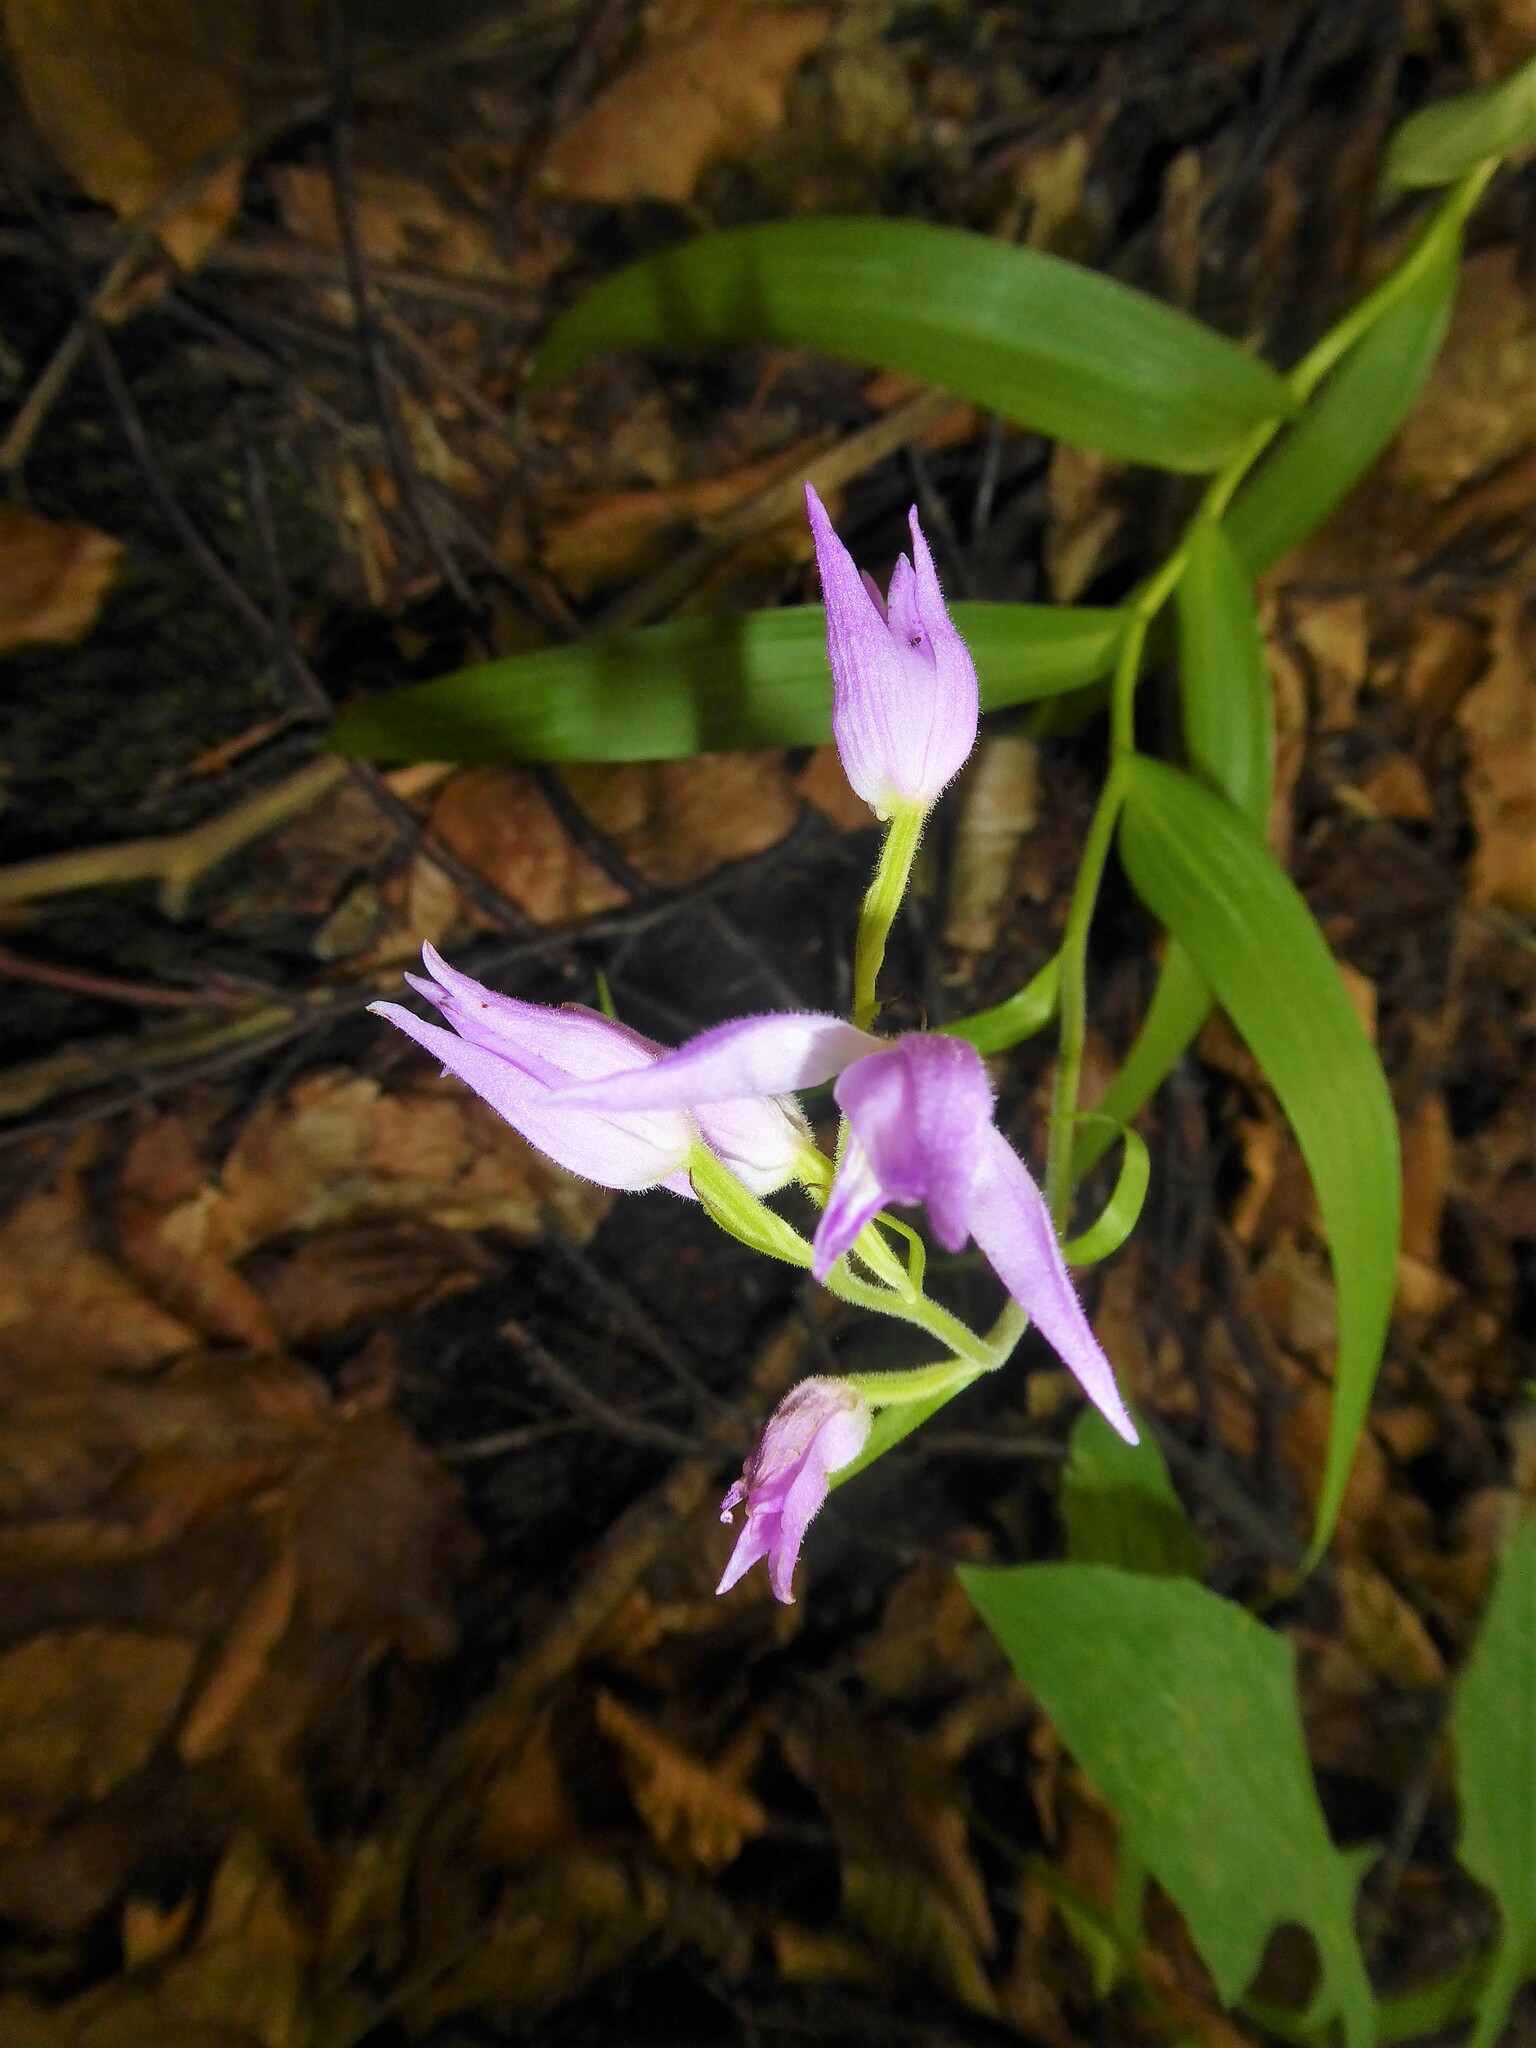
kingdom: Plantae
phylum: Tracheophyta
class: Liliopsida
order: Asparagales
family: Orchidaceae
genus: Cephalanthera
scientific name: Cephalanthera rubra
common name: Red helleborine
